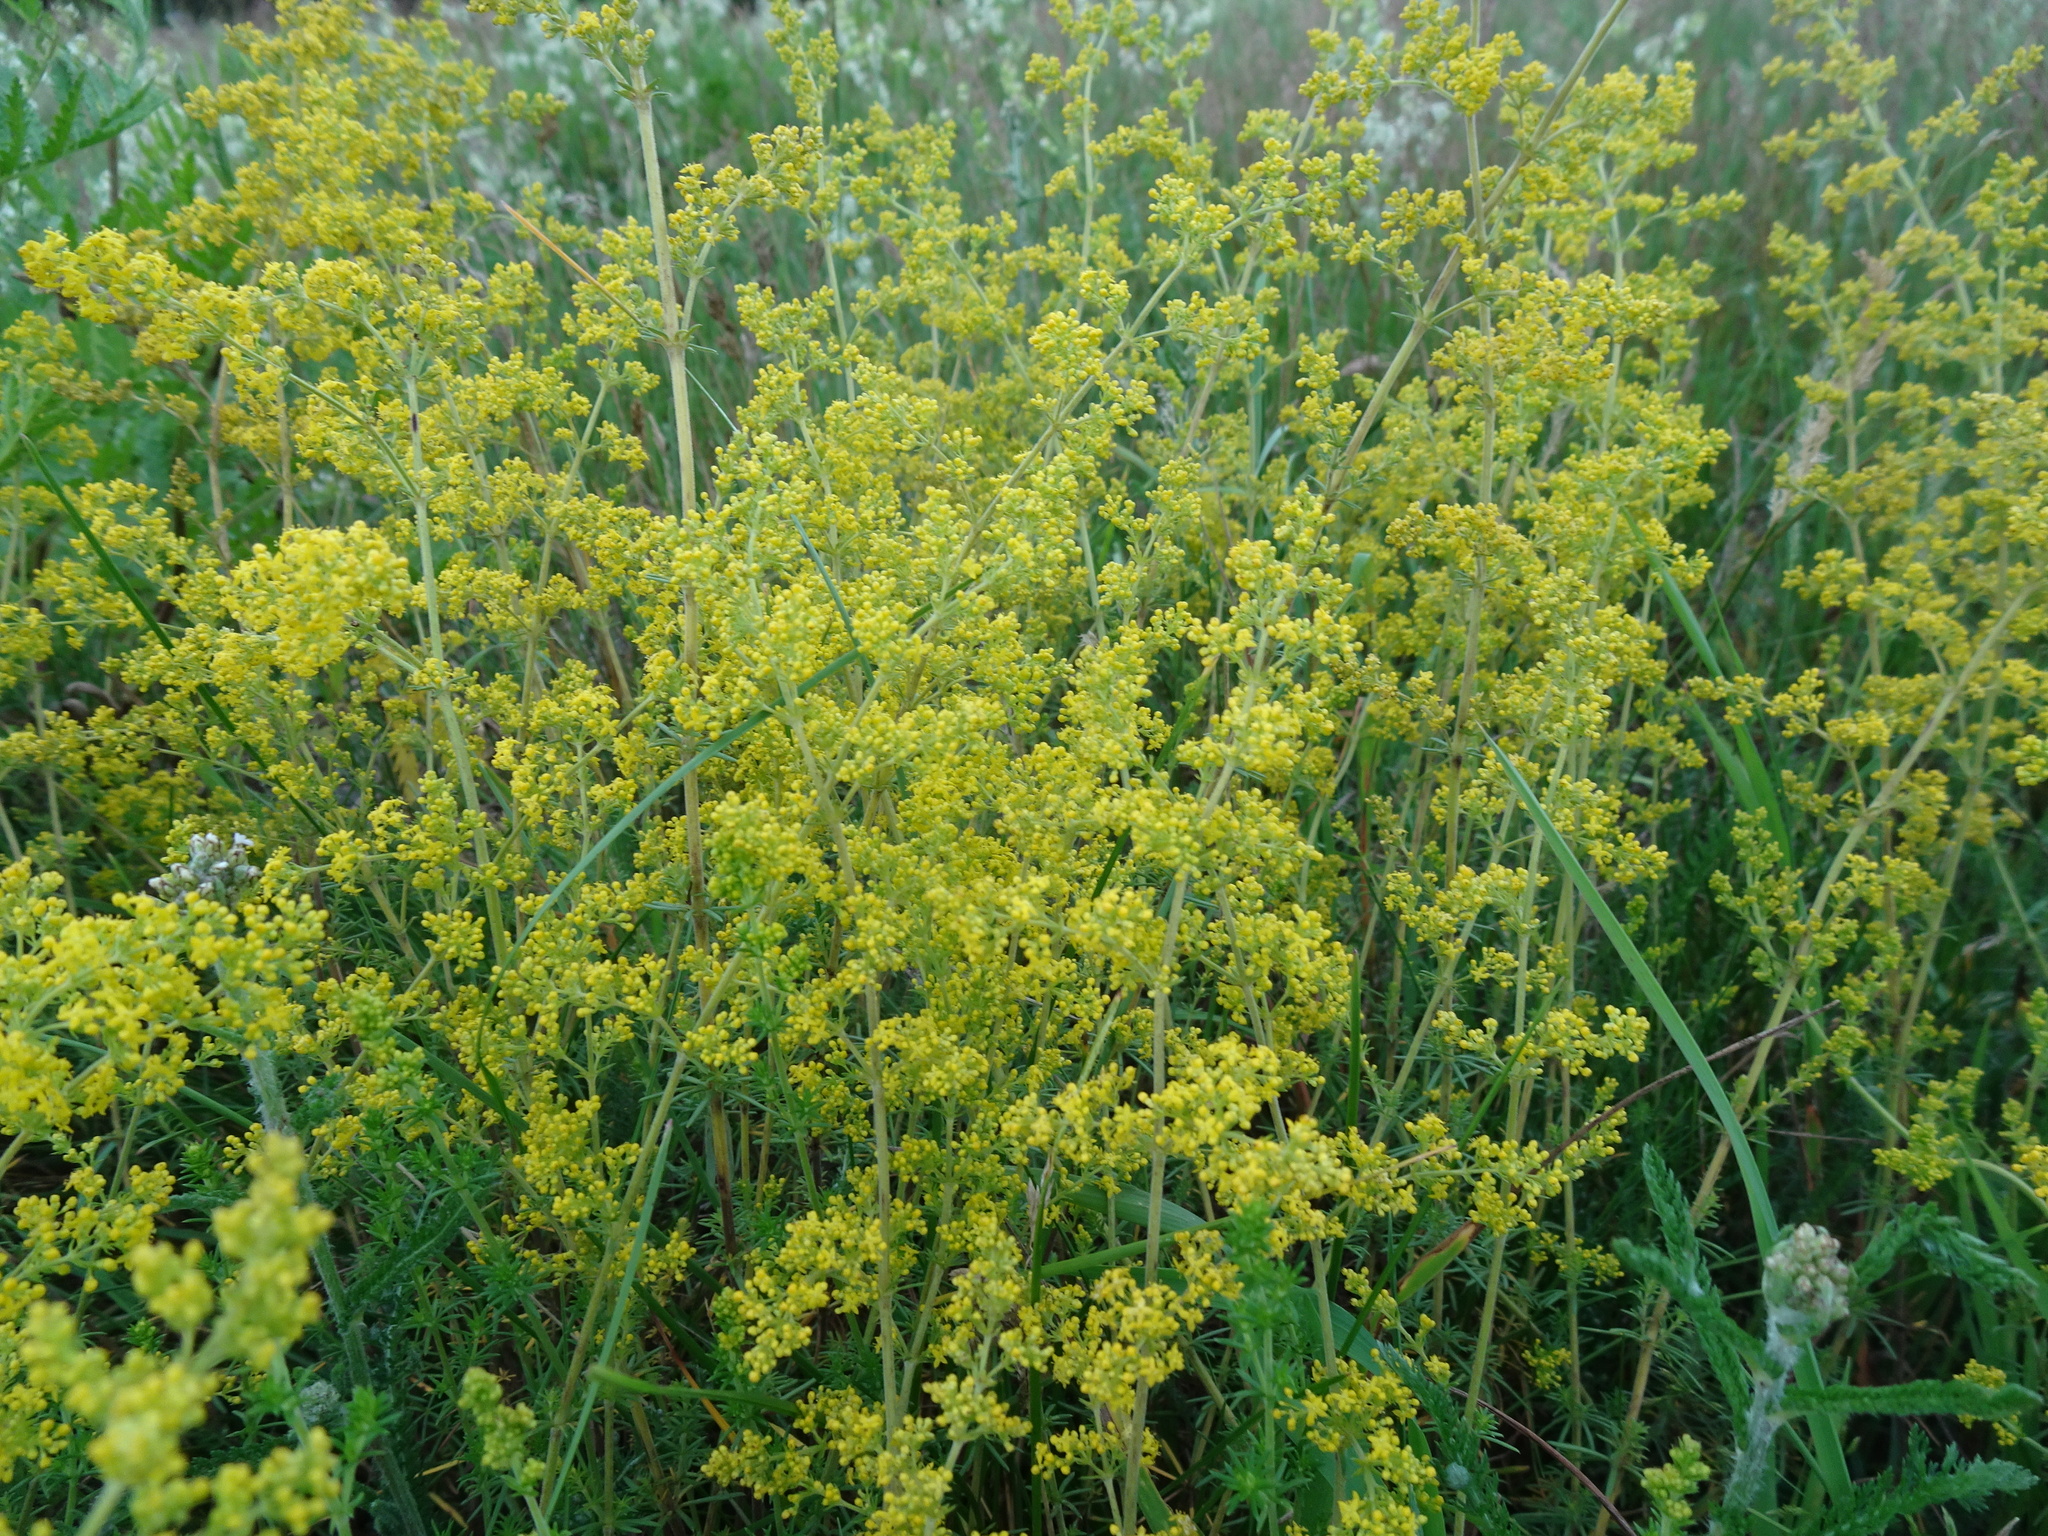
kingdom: Plantae
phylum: Tracheophyta
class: Magnoliopsida
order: Gentianales
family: Rubiaceae
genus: Galium
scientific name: Galium verum
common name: Lady's bedstraw
